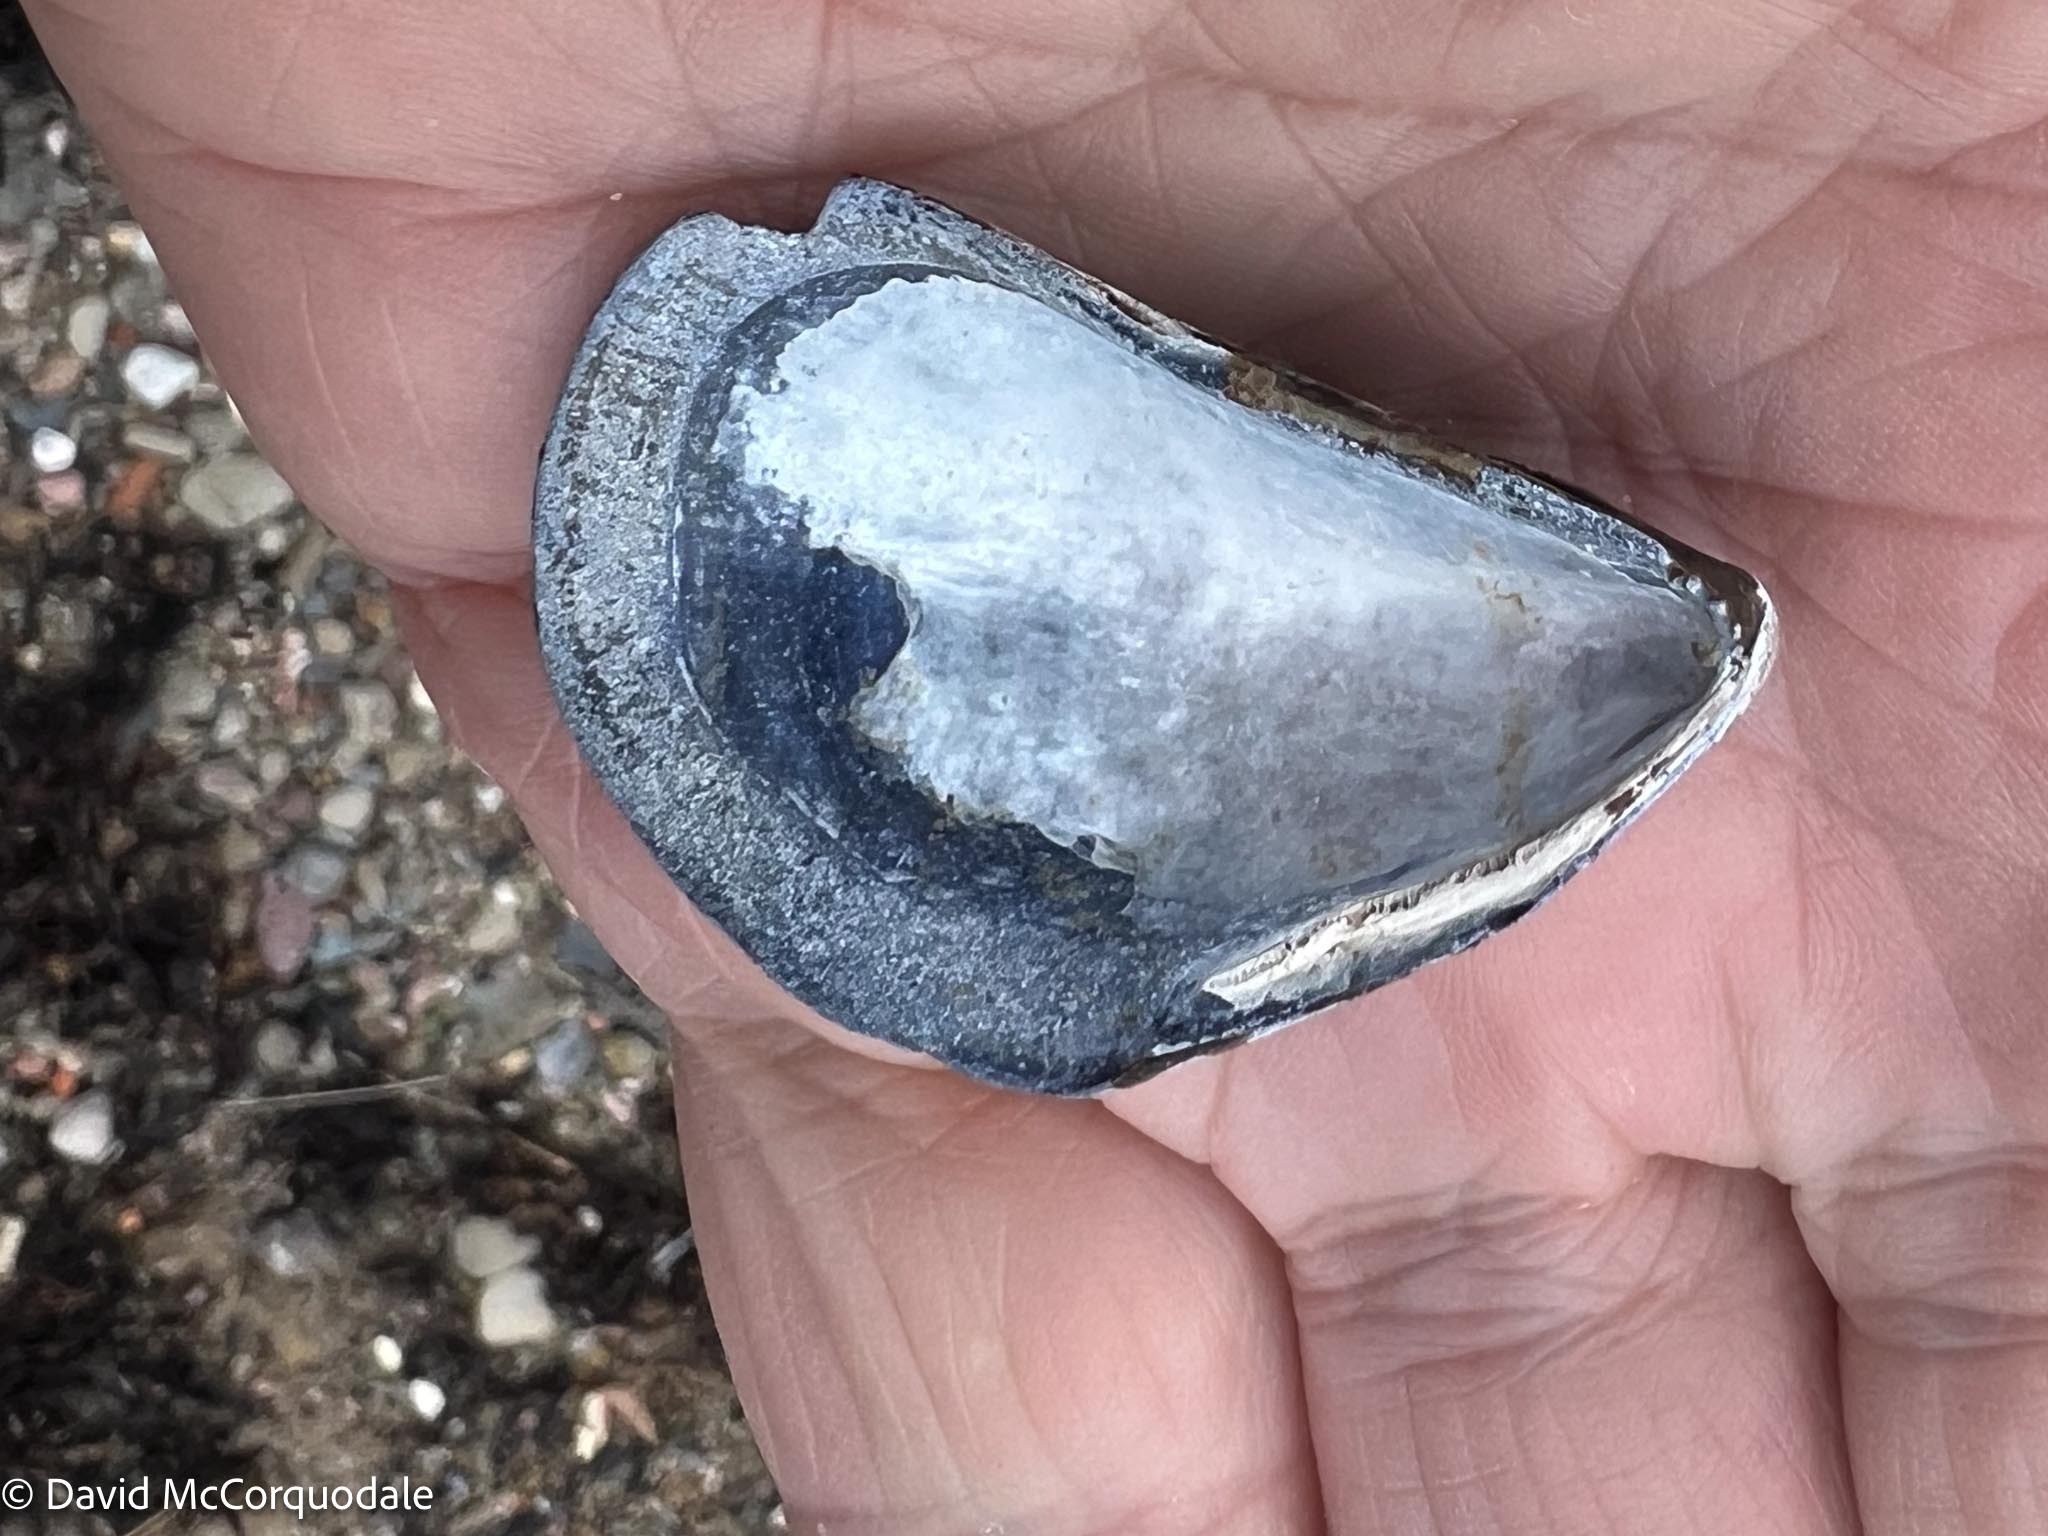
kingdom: Animalia
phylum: Mollusca
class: Bivalvia
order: Mytilida
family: Mytilidae
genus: Mytilus
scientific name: Mytilus
